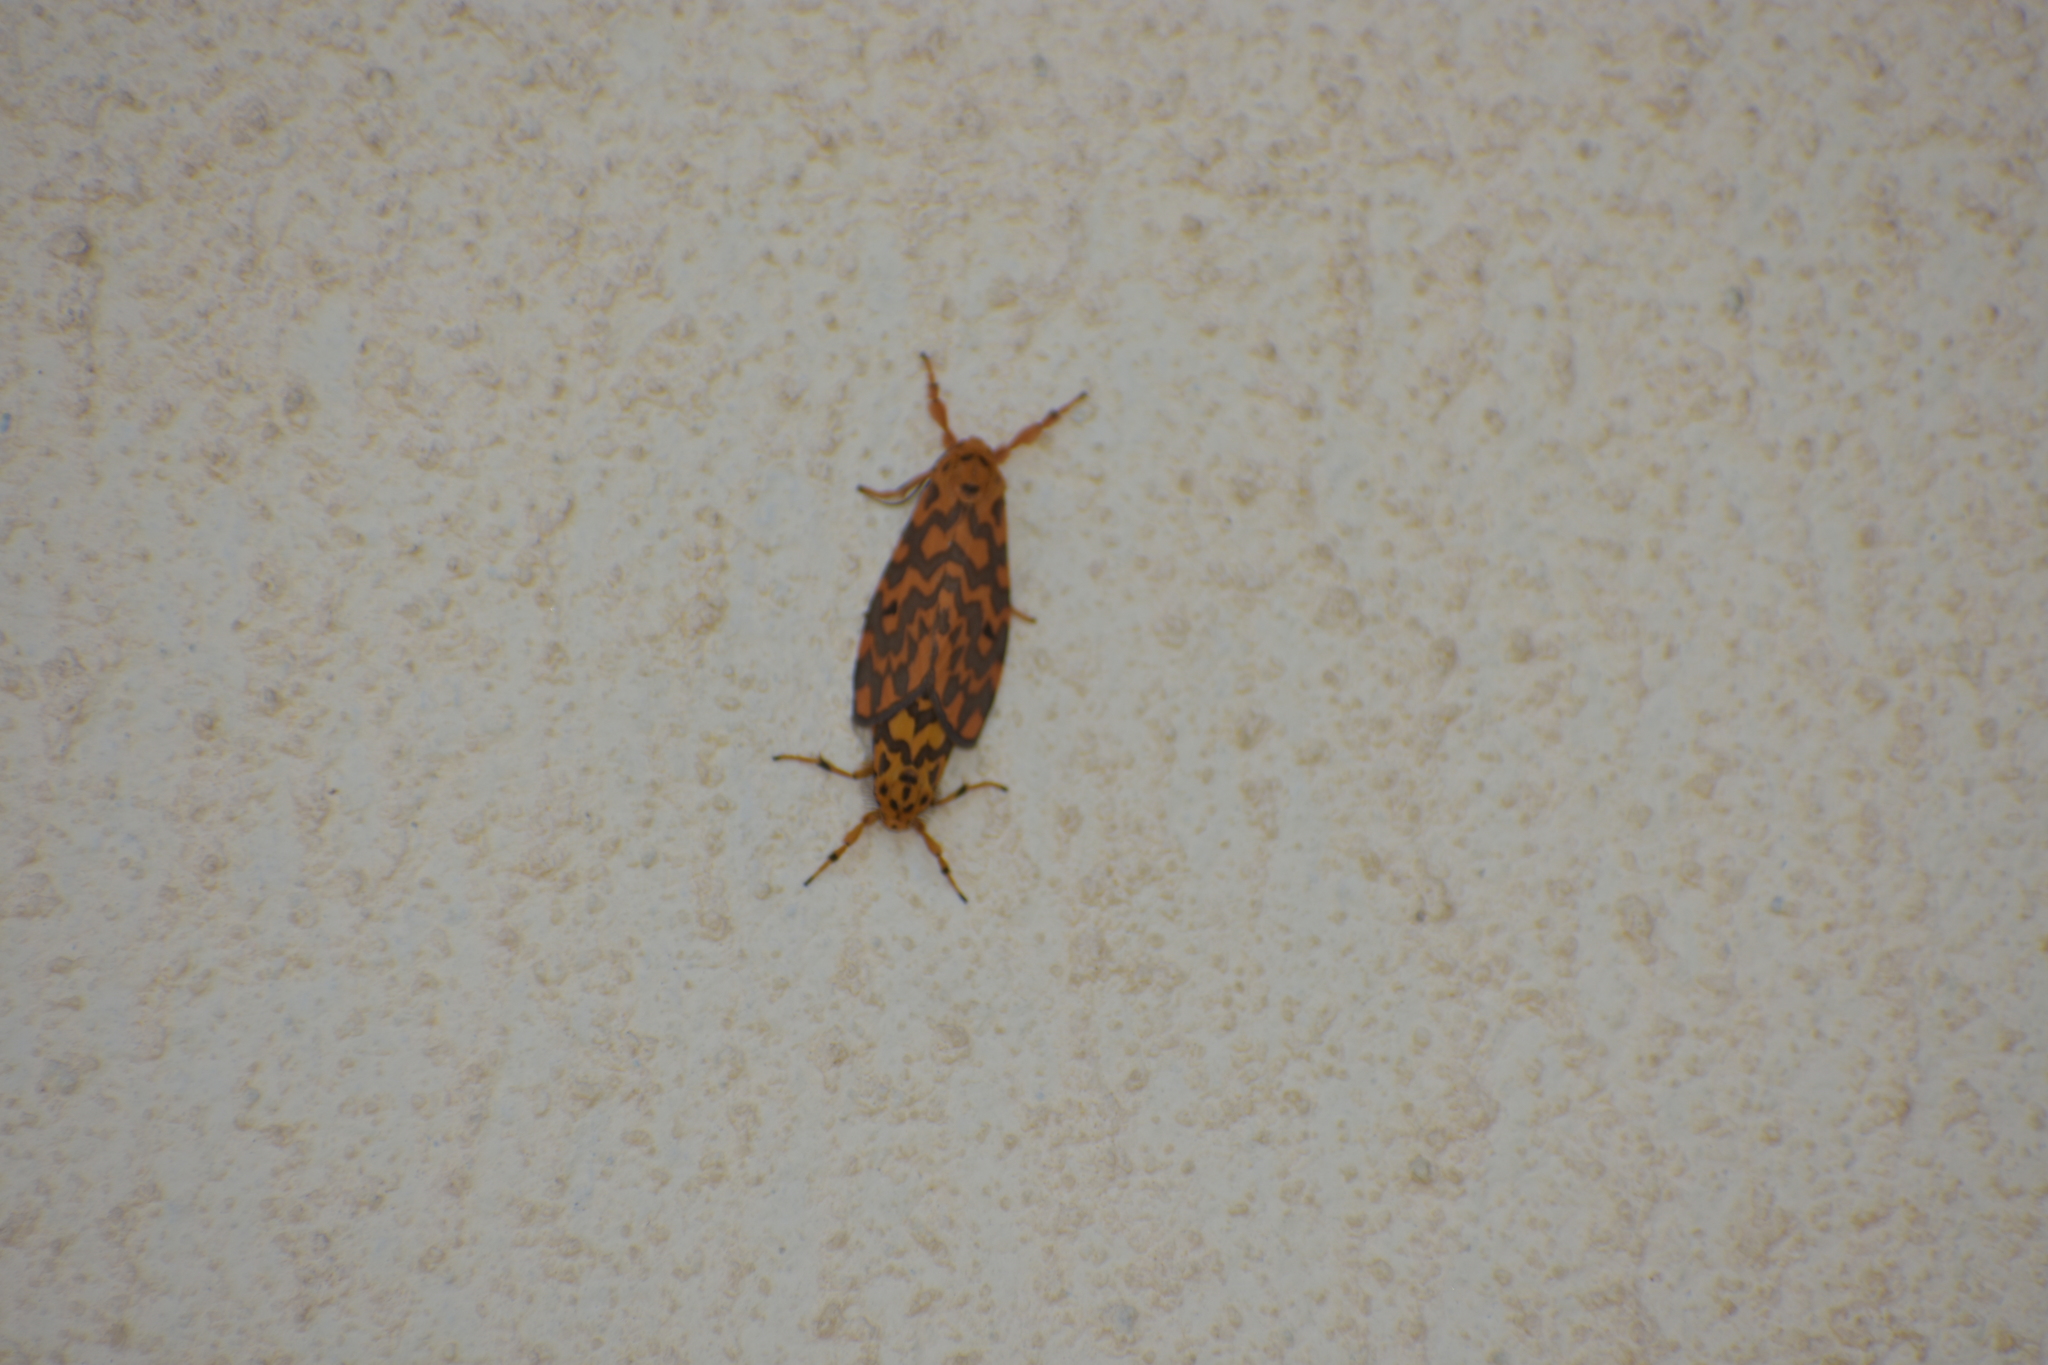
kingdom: Animalia
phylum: Arthropoda
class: Insecta
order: Lepidoptera
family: Erebidae
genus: Nepita
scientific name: Nepita conferta
